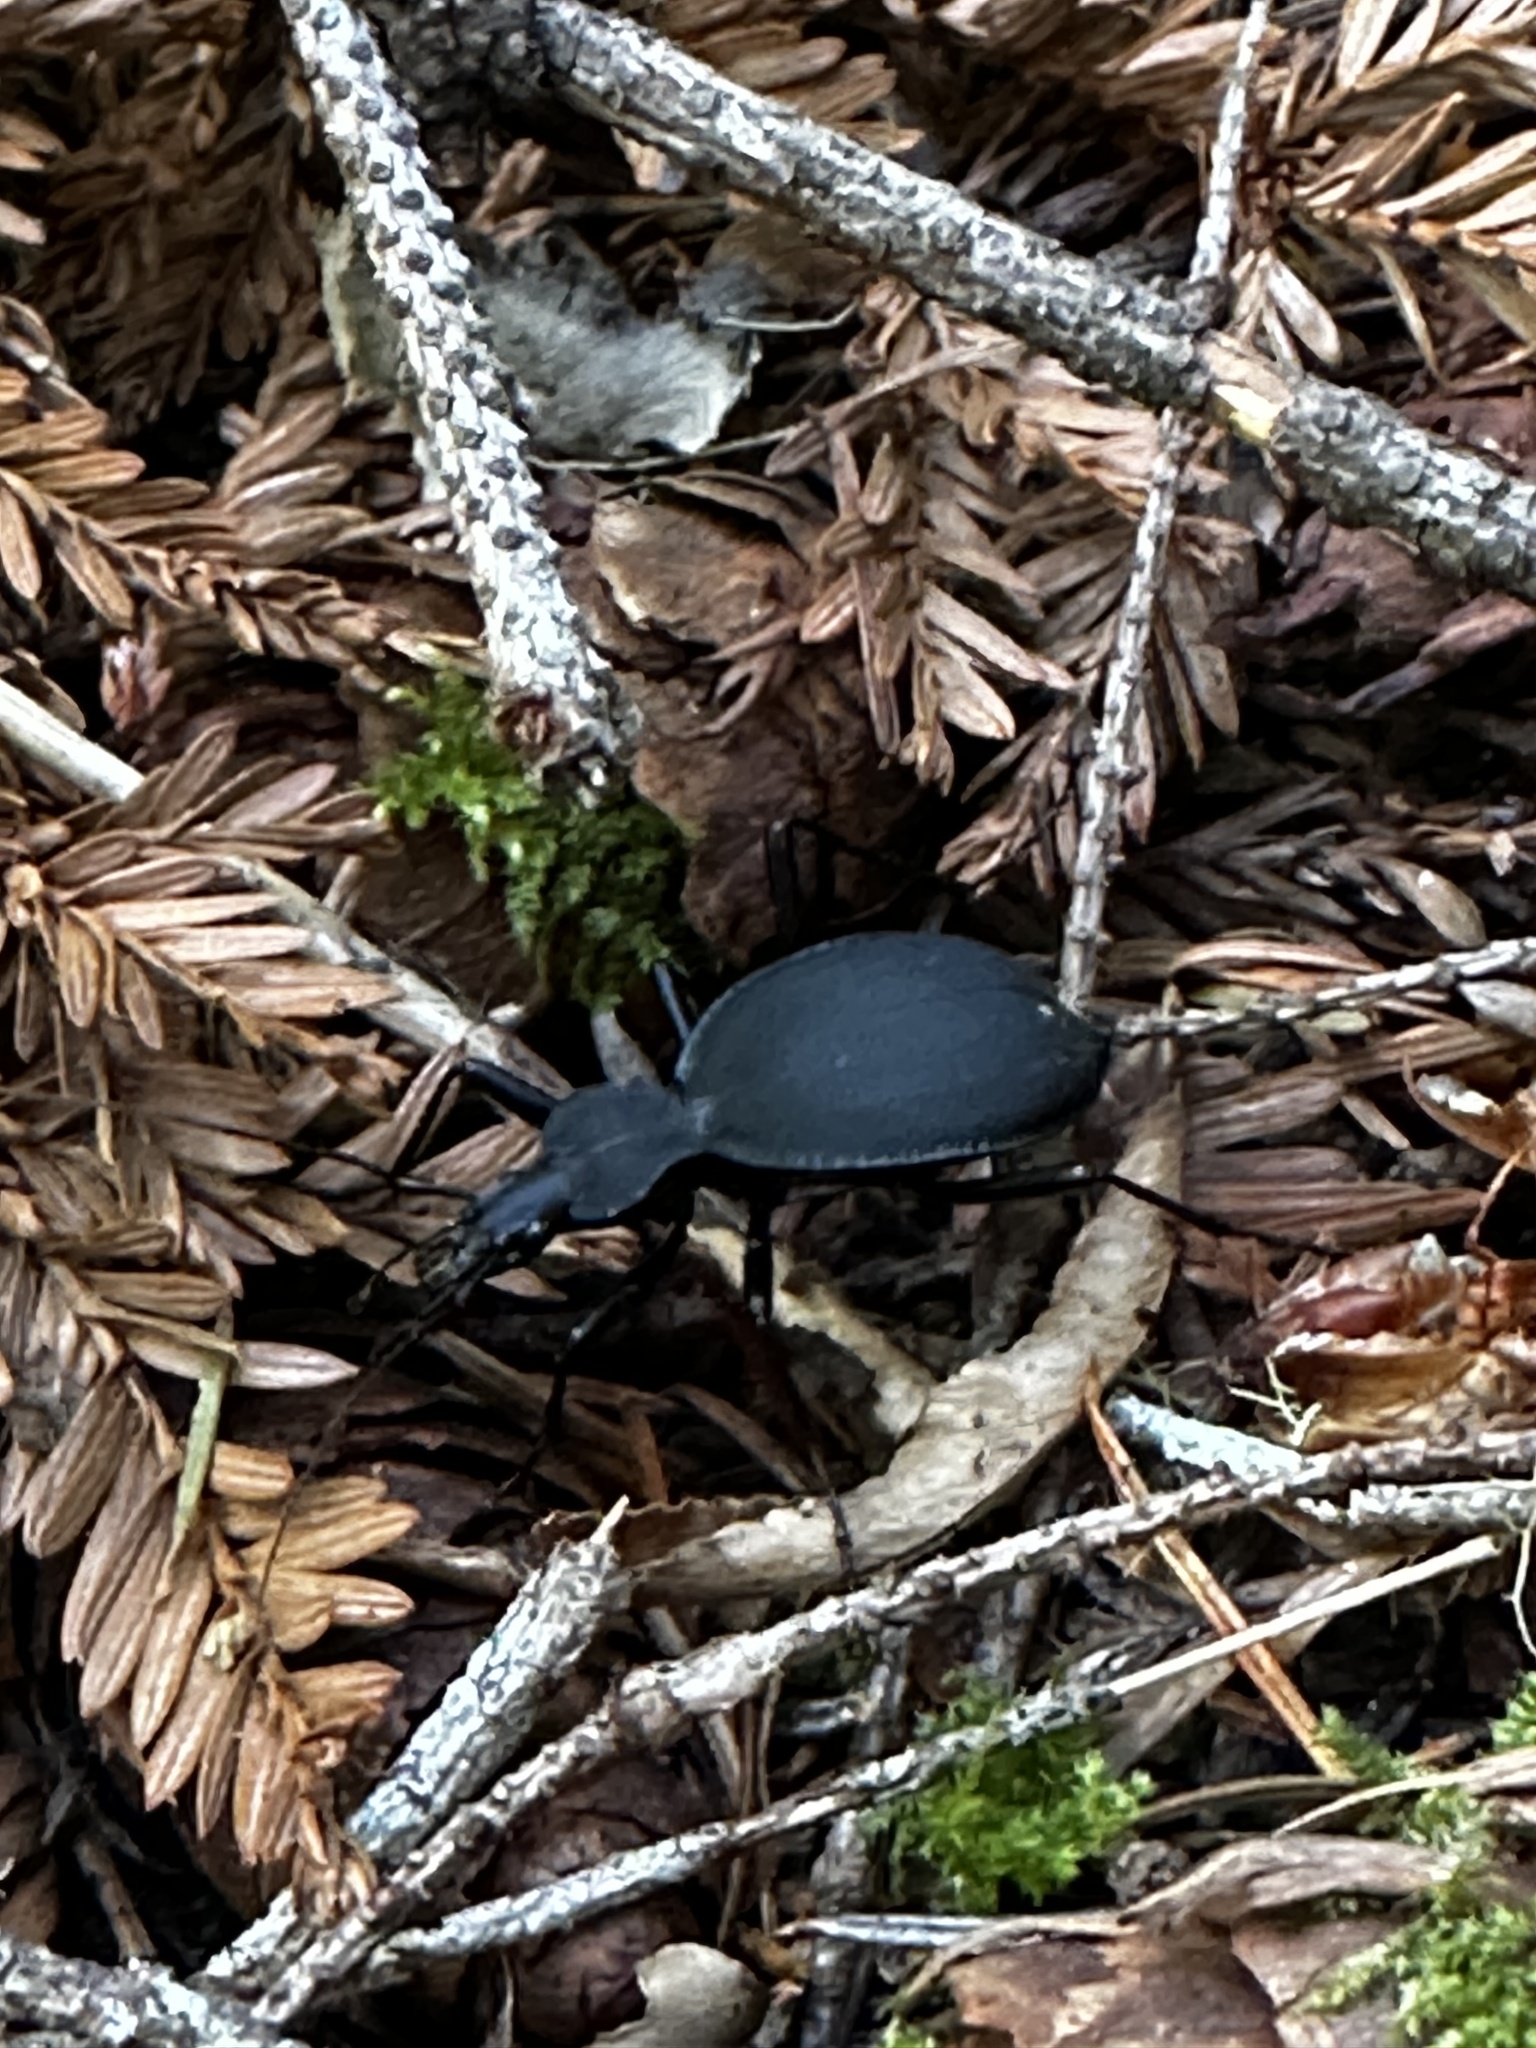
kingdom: Animalia
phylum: Arthropoda
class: Insecta
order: Coleoptera
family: Carabidae
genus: Scaphinotus
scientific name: Scaphinotus angusticollis
